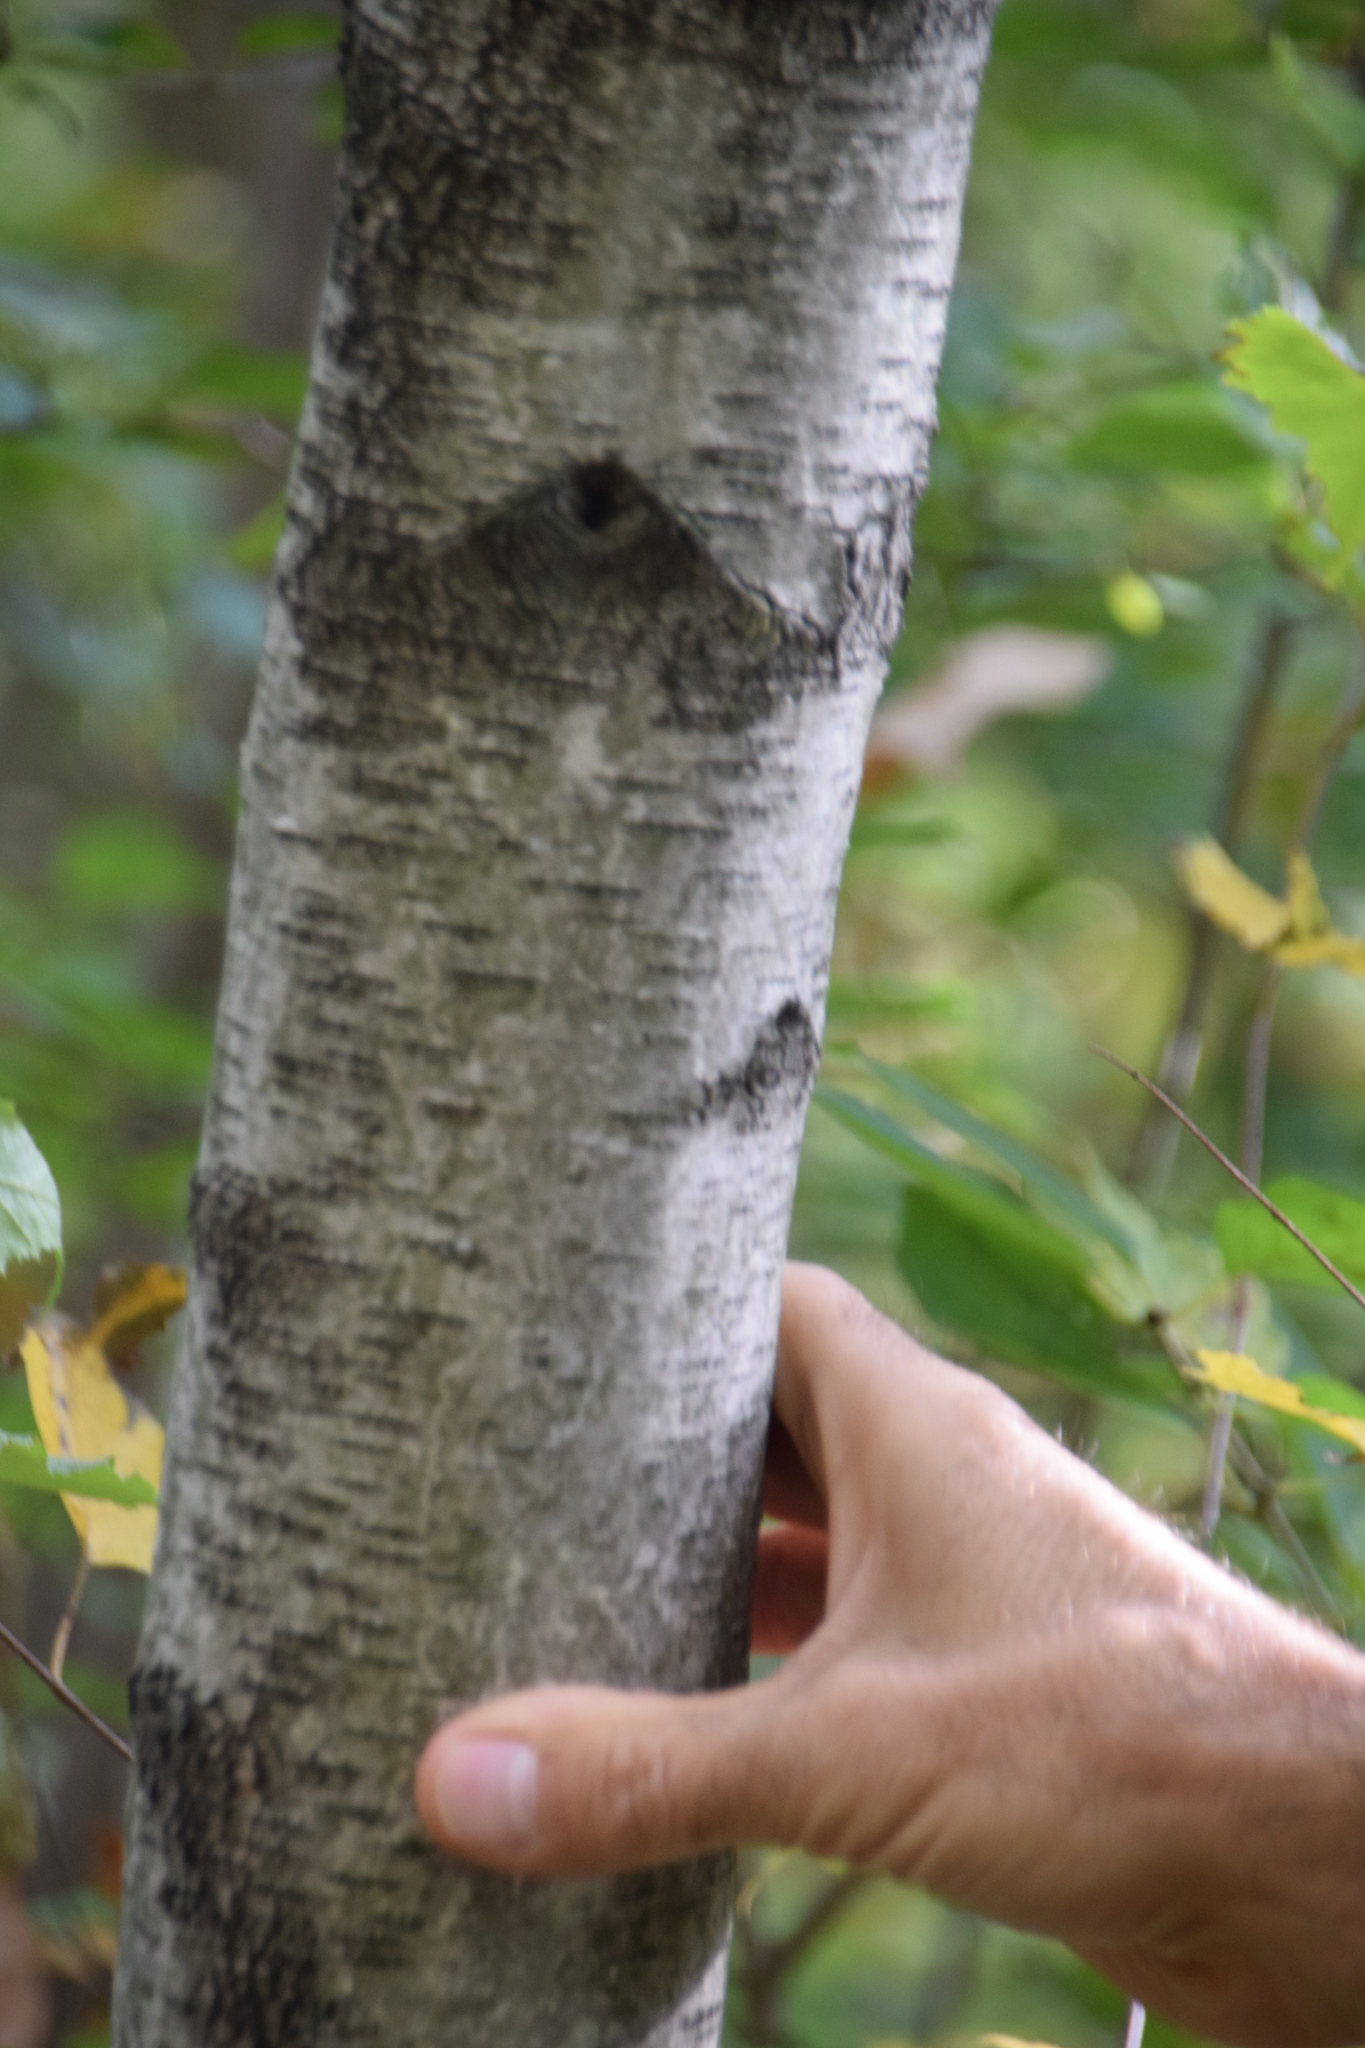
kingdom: Plantae
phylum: Tracheophyta
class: Magnoliopsida
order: Fagales
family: Betulaceae
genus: Betula
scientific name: Betula populifolia
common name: Fire birch
